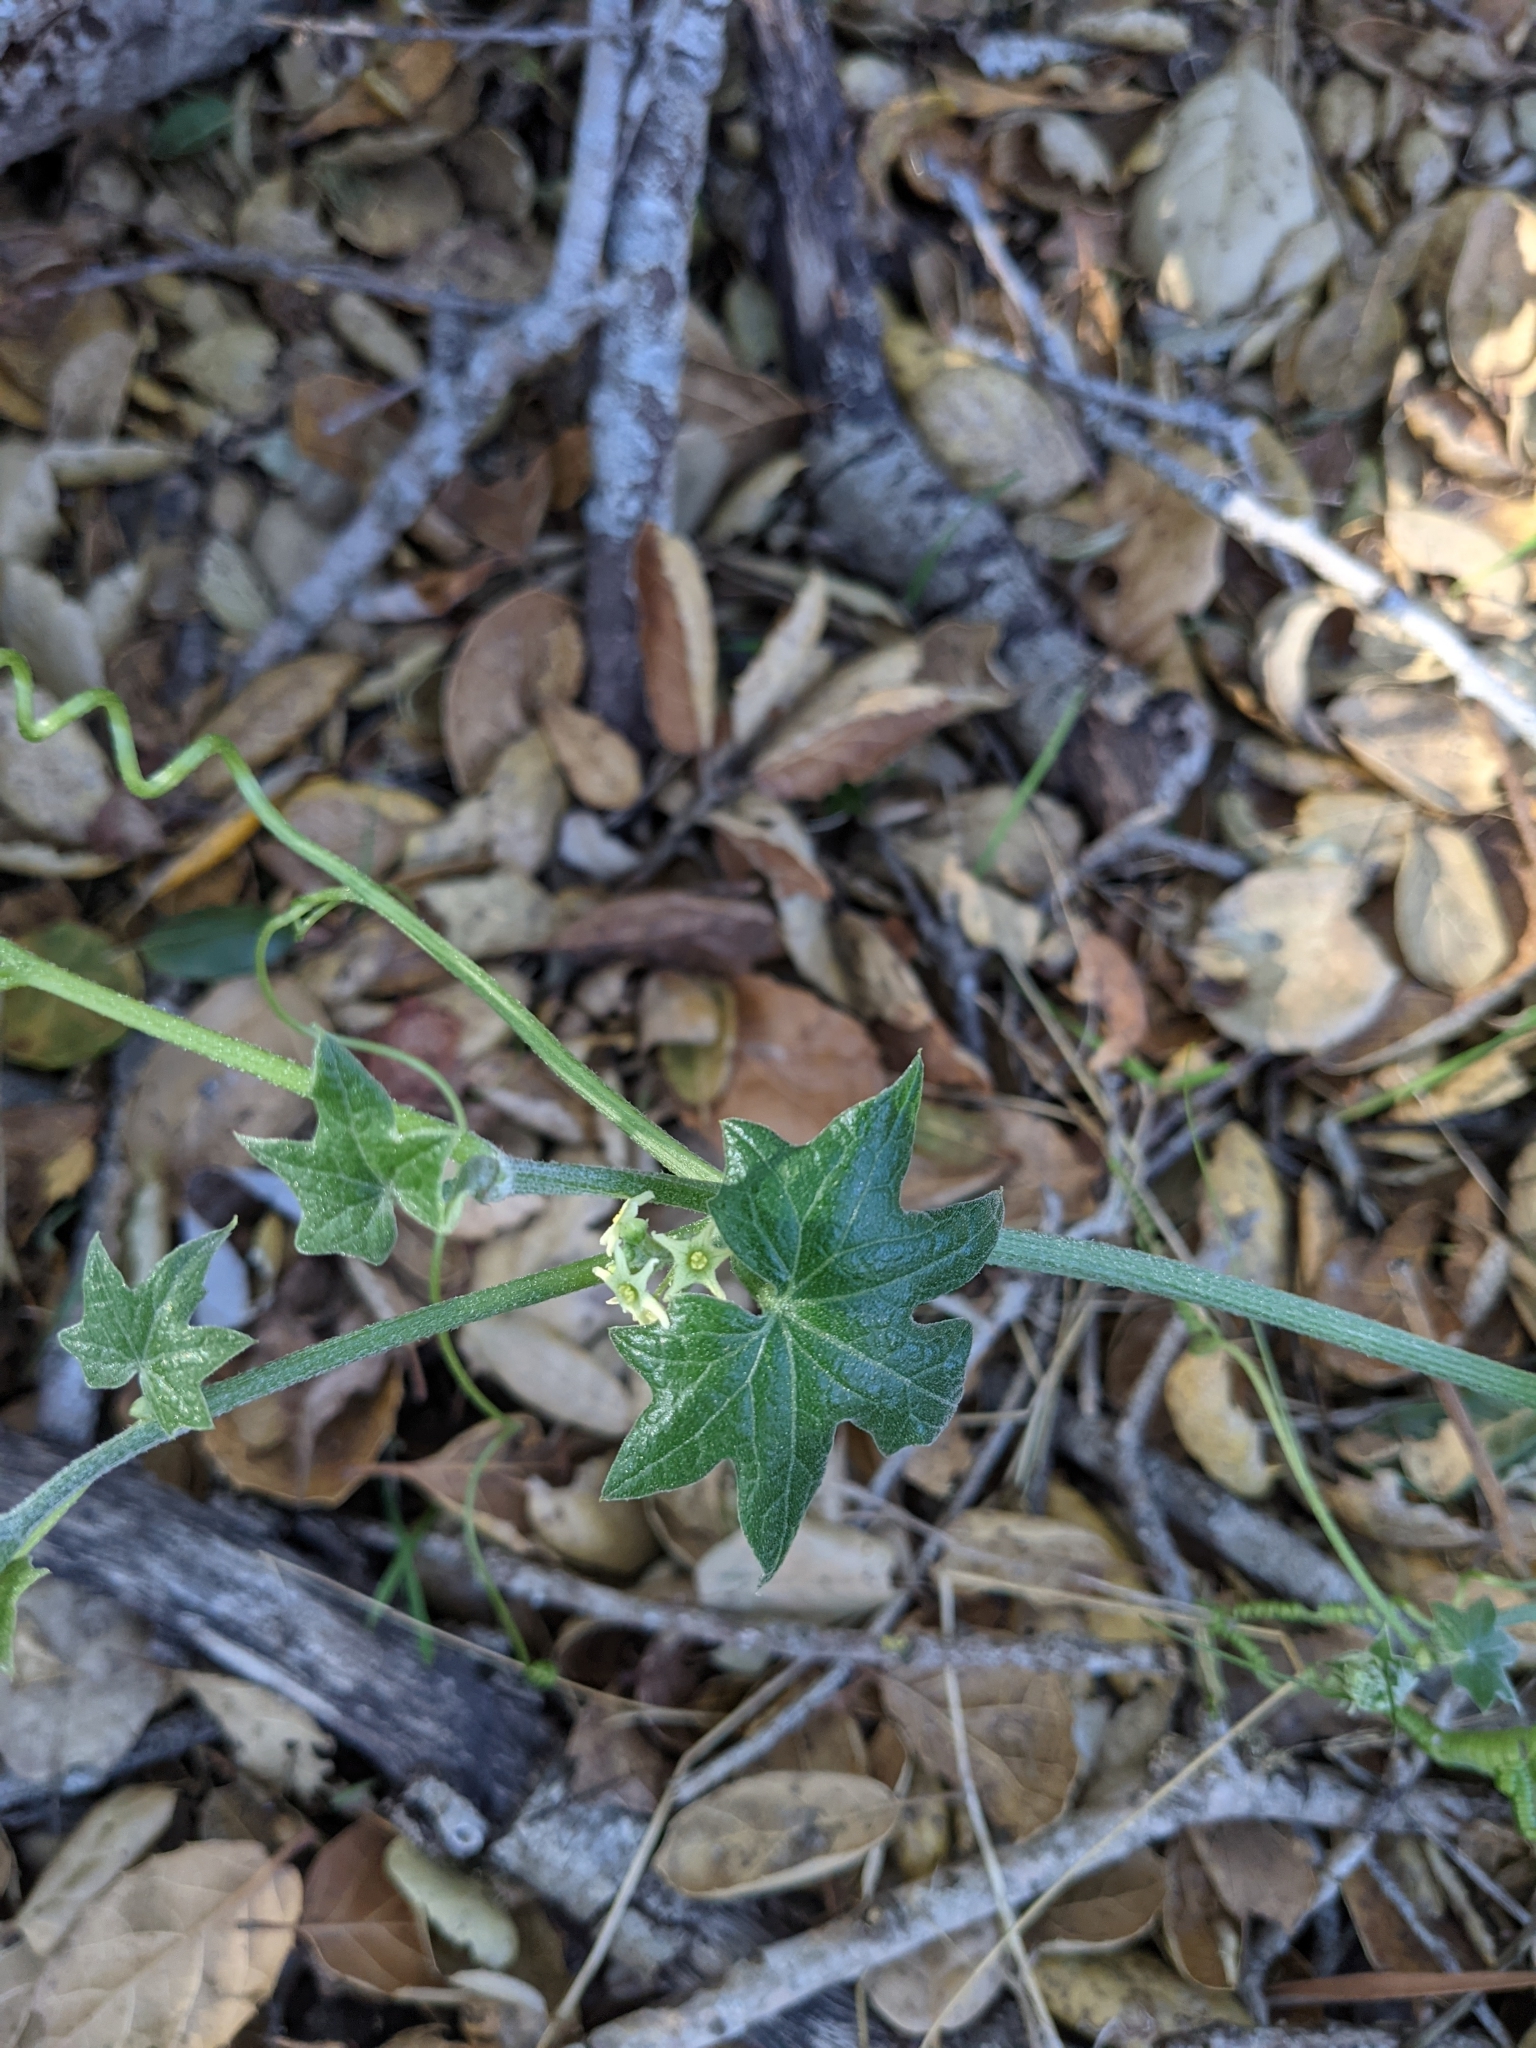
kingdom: Plantae
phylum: Tracheophyta
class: Magnoliopsida
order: Cucurbitales
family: Cucurbitaceae
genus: Marah
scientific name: Marah fabacea
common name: California manroot
